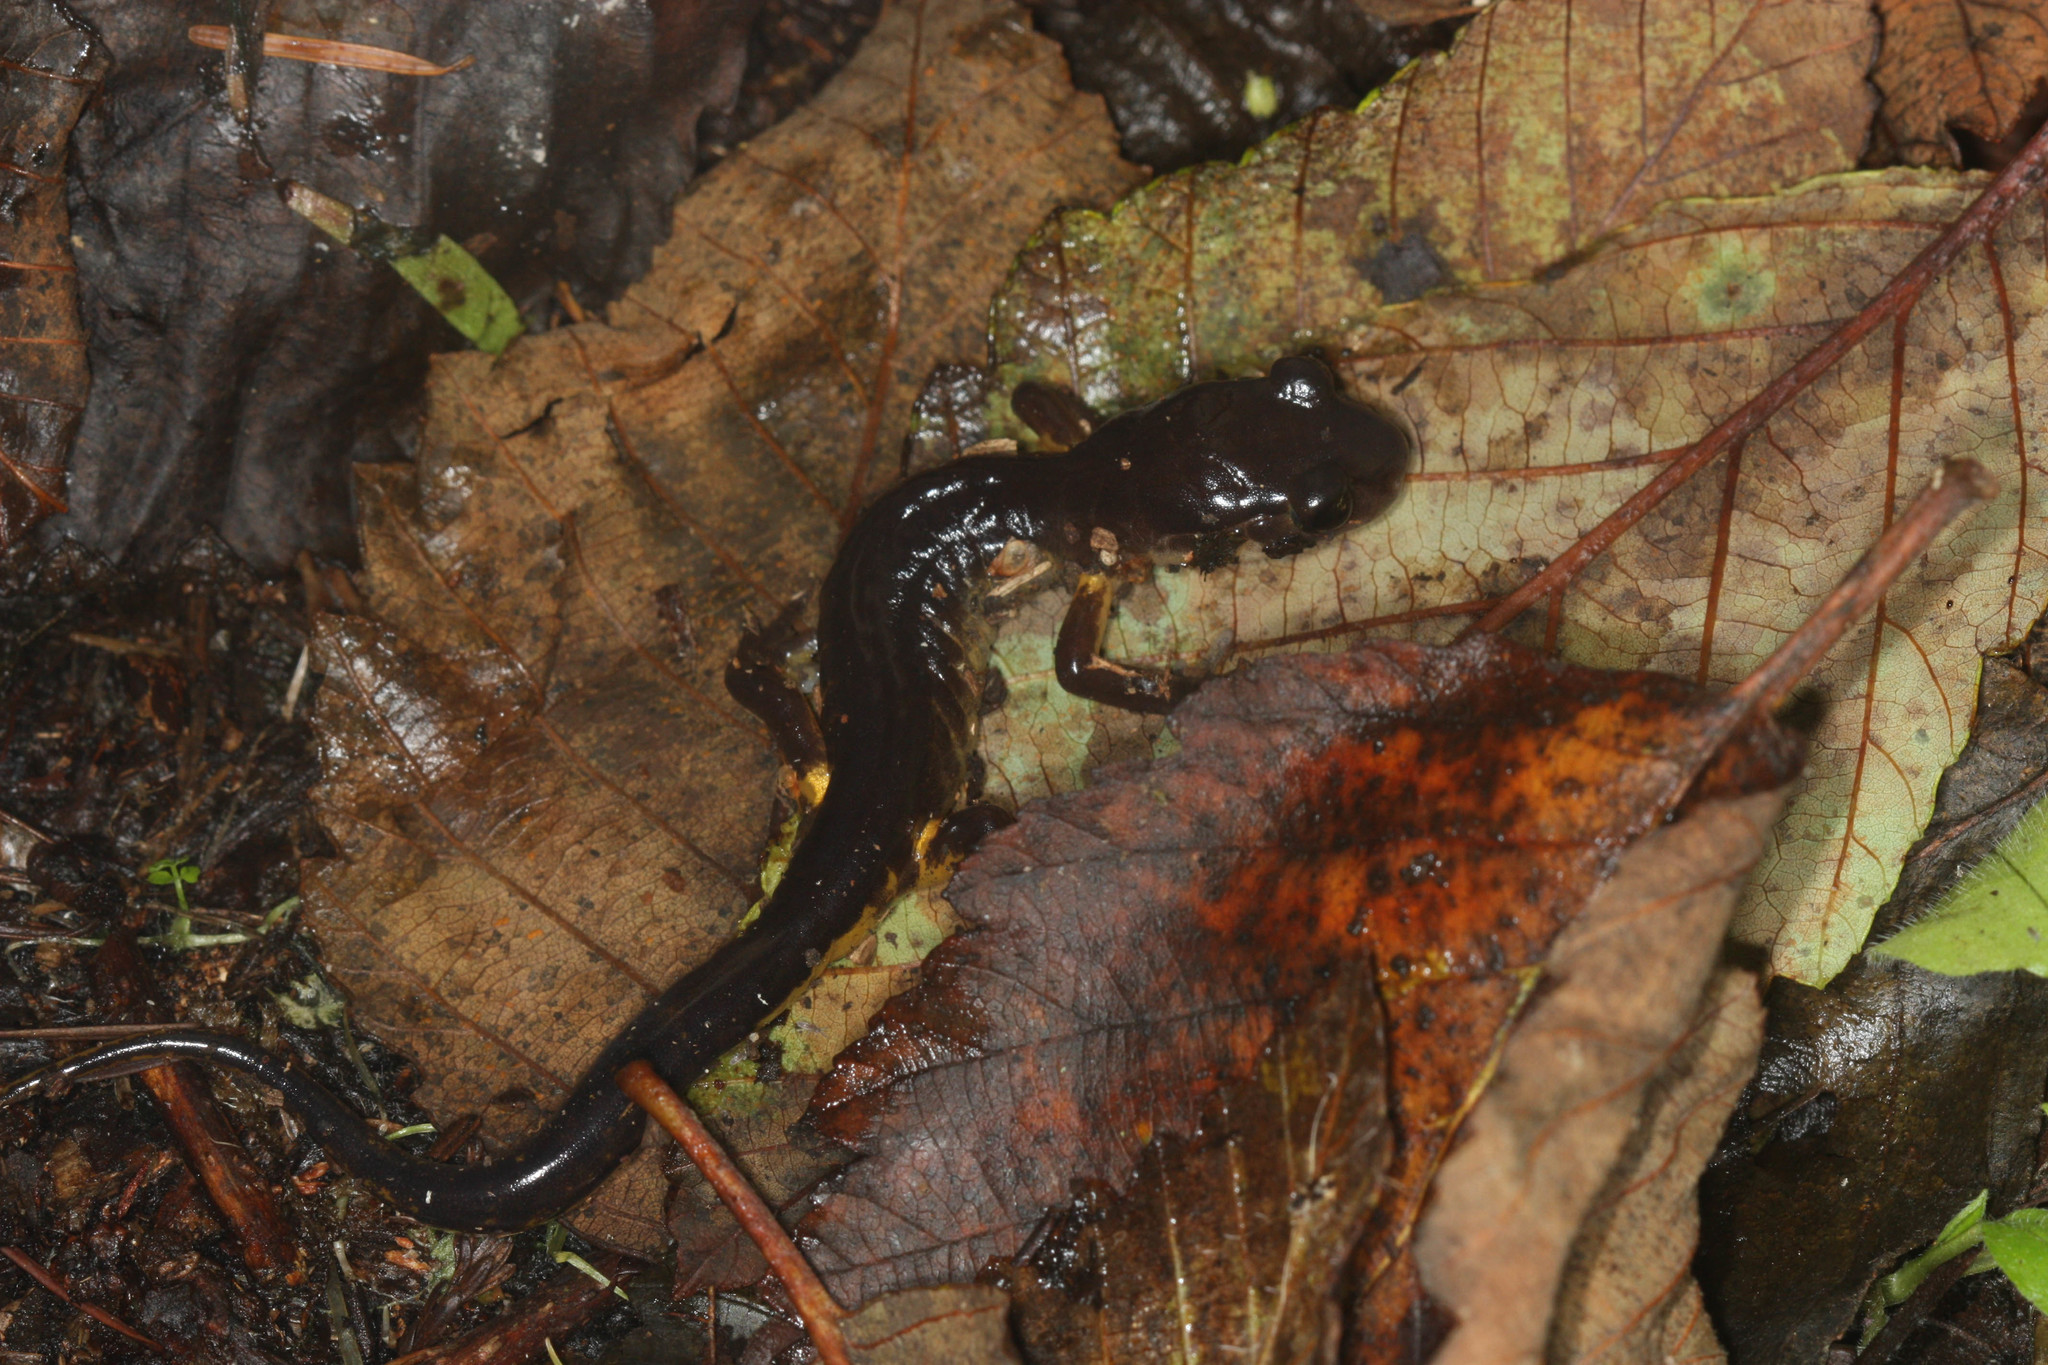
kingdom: Animalia
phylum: Chordata
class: Amphibia
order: Caudata
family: Plethodontidae
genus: Ensatina
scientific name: Ensatina eschscholtzii
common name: Ensatina
